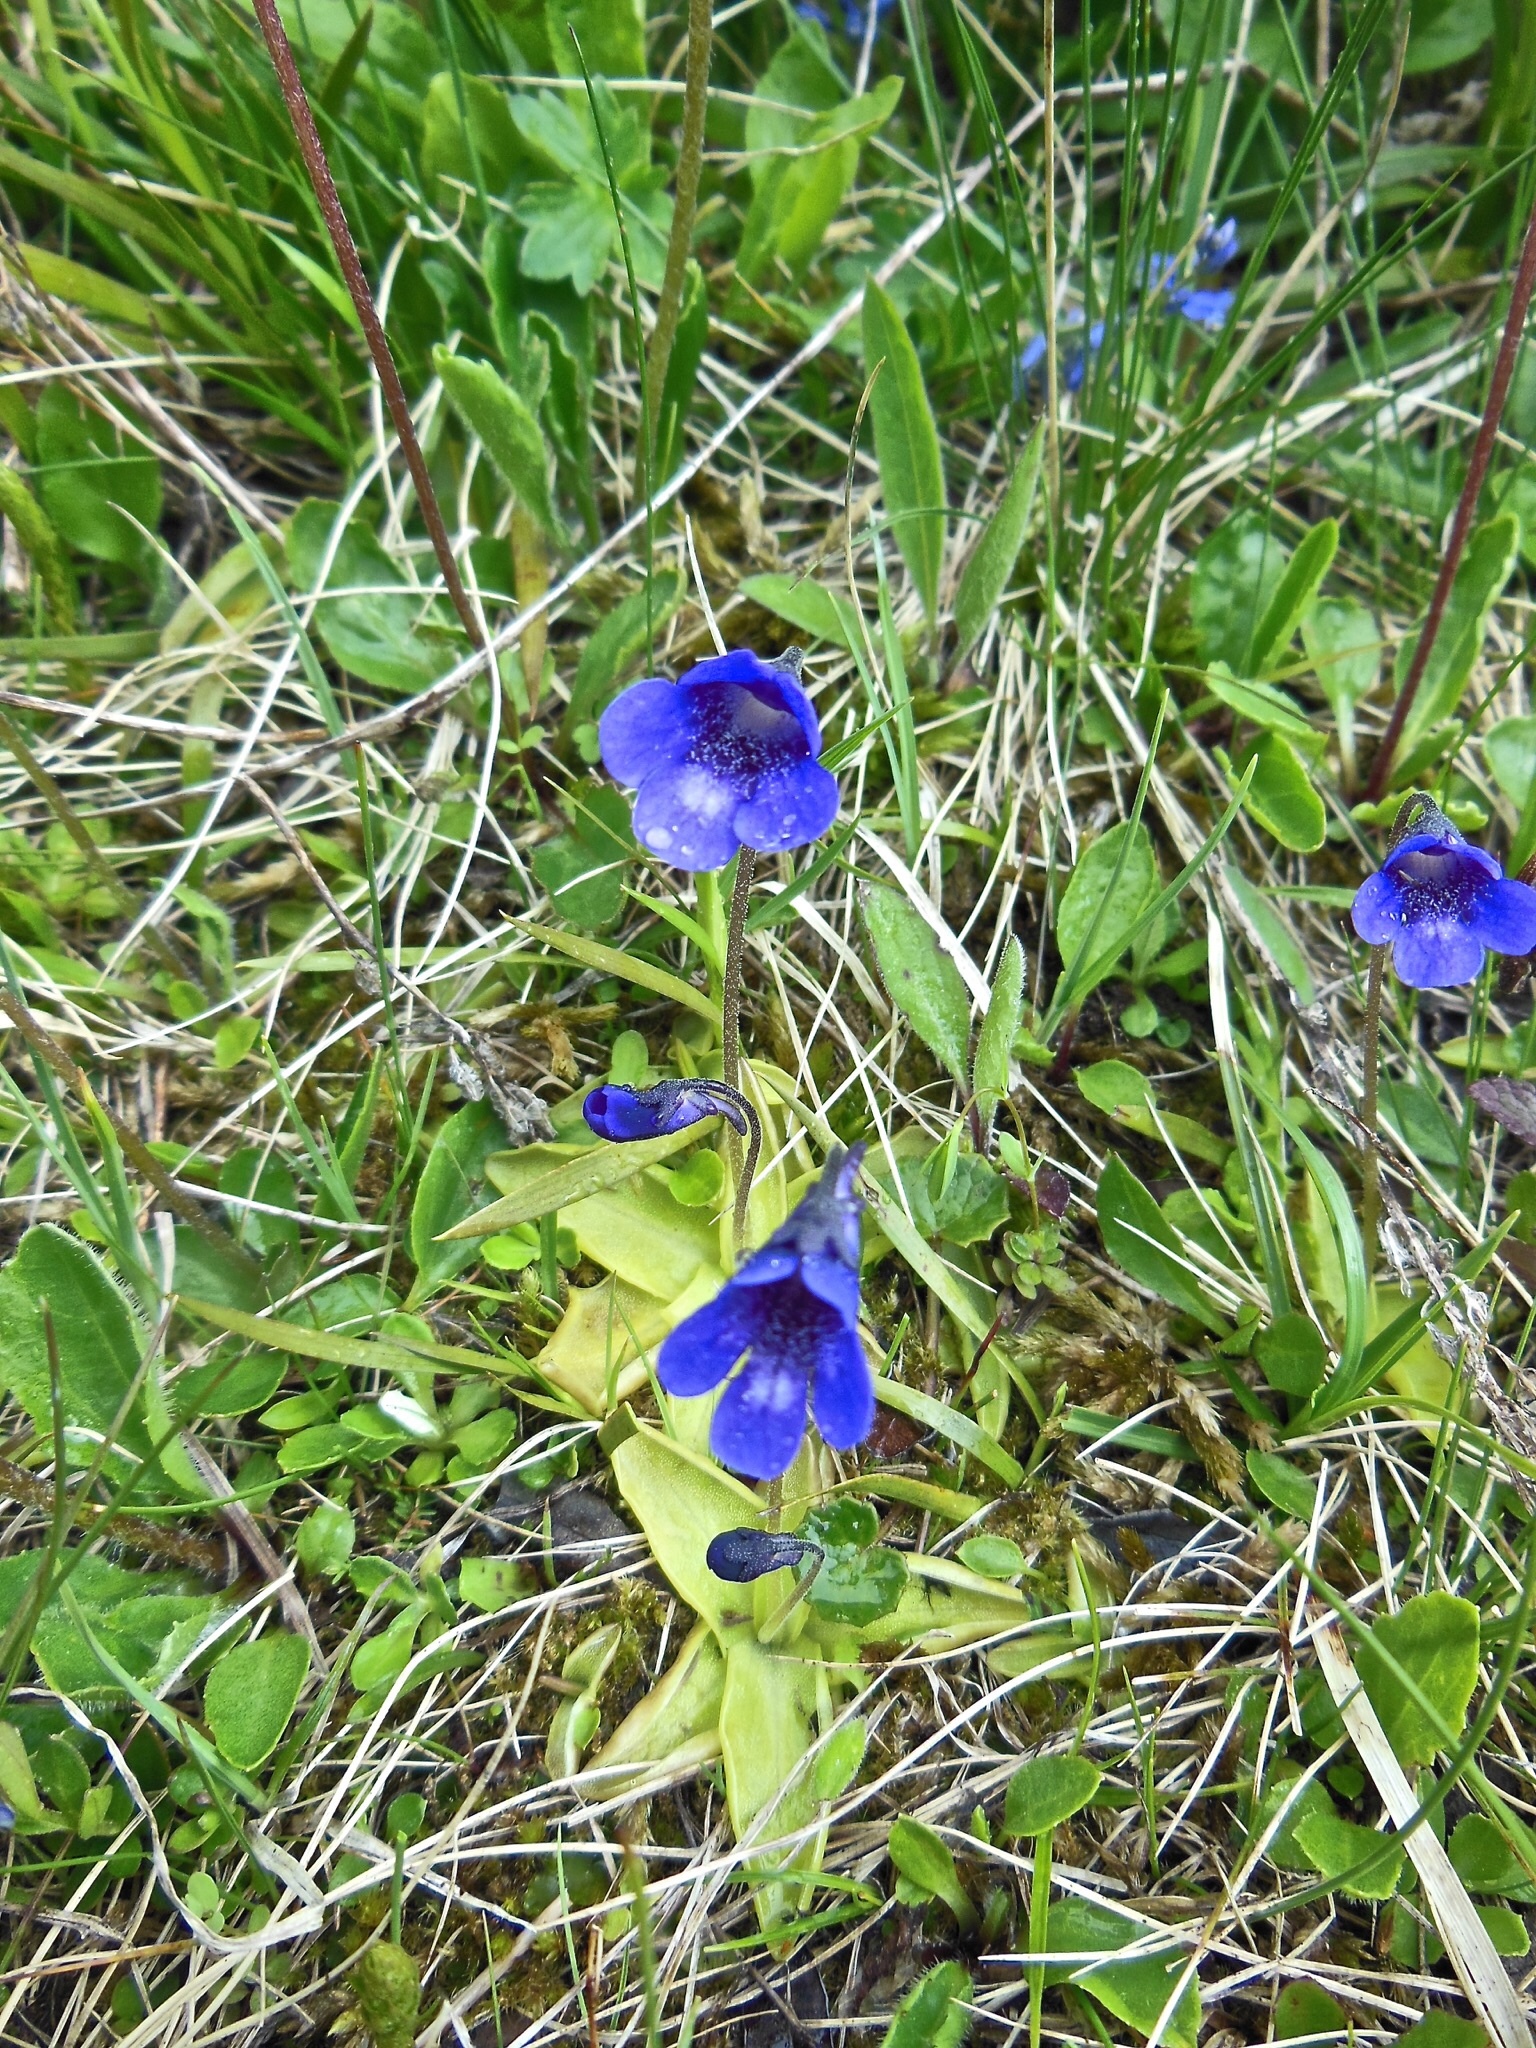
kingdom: Plantae
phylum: Tracheophyta
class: Magnoliopsida
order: Lamiales
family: Lentibulariaceae
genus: Pinguicula
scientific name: Pinguicula leptoceras
